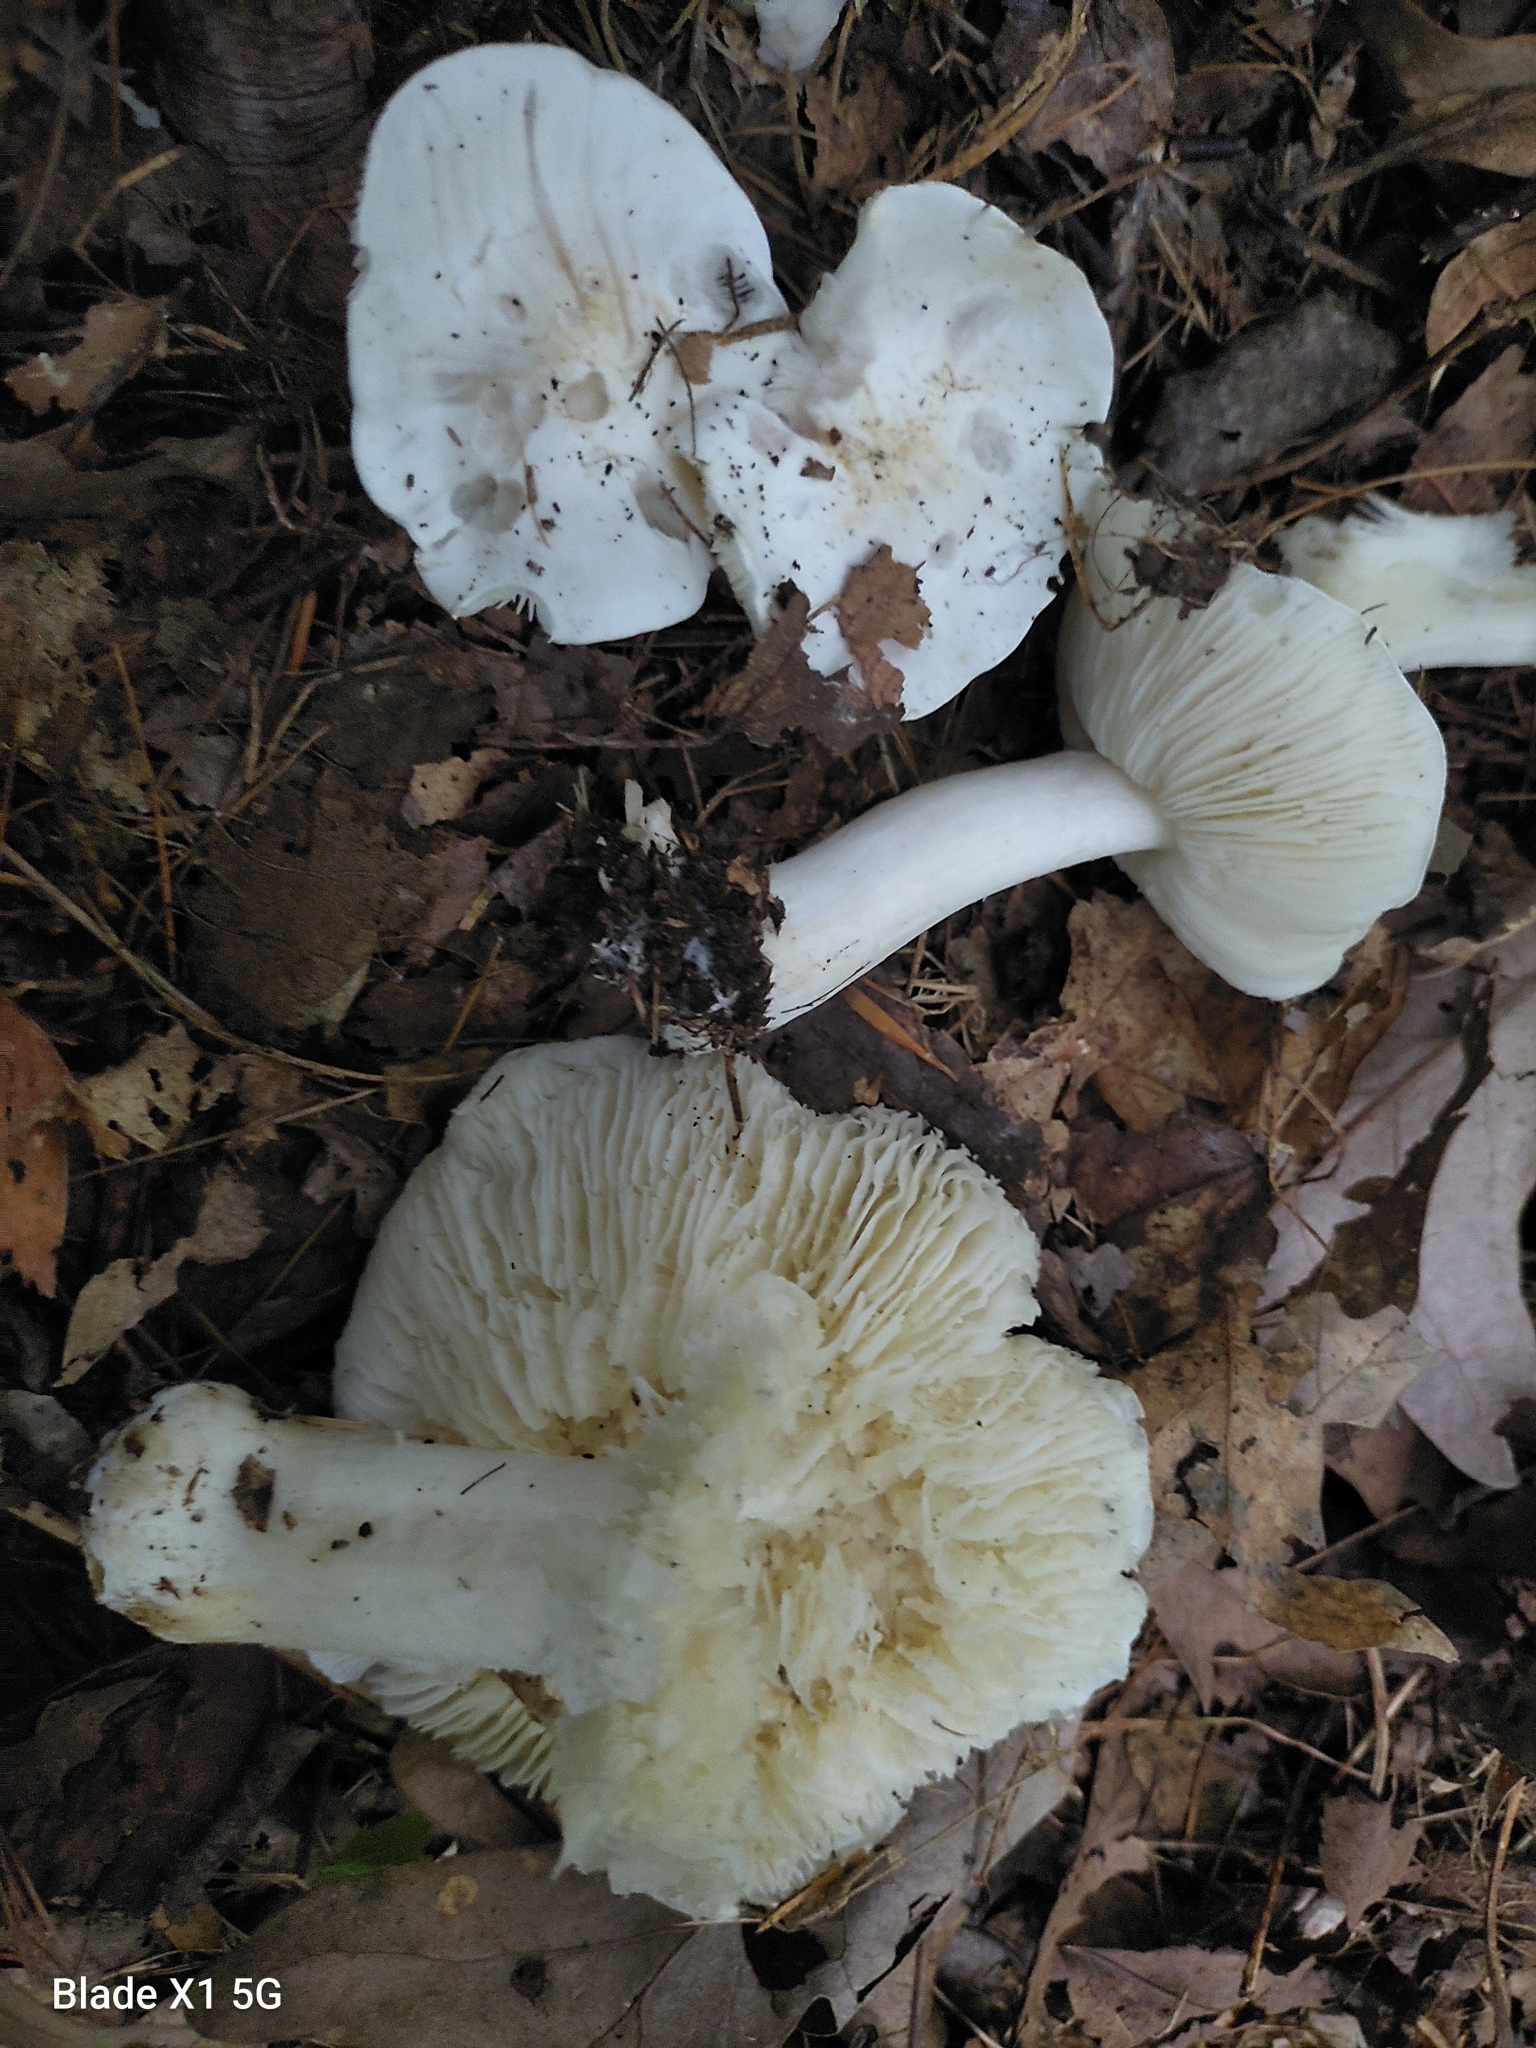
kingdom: Fungi
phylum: Basidiomycota
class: Agaricomycetes
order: Agaricales
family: Tricholomataceae
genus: Tricholoma
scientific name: Tricholoma columbetta
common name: Blue spot knight
